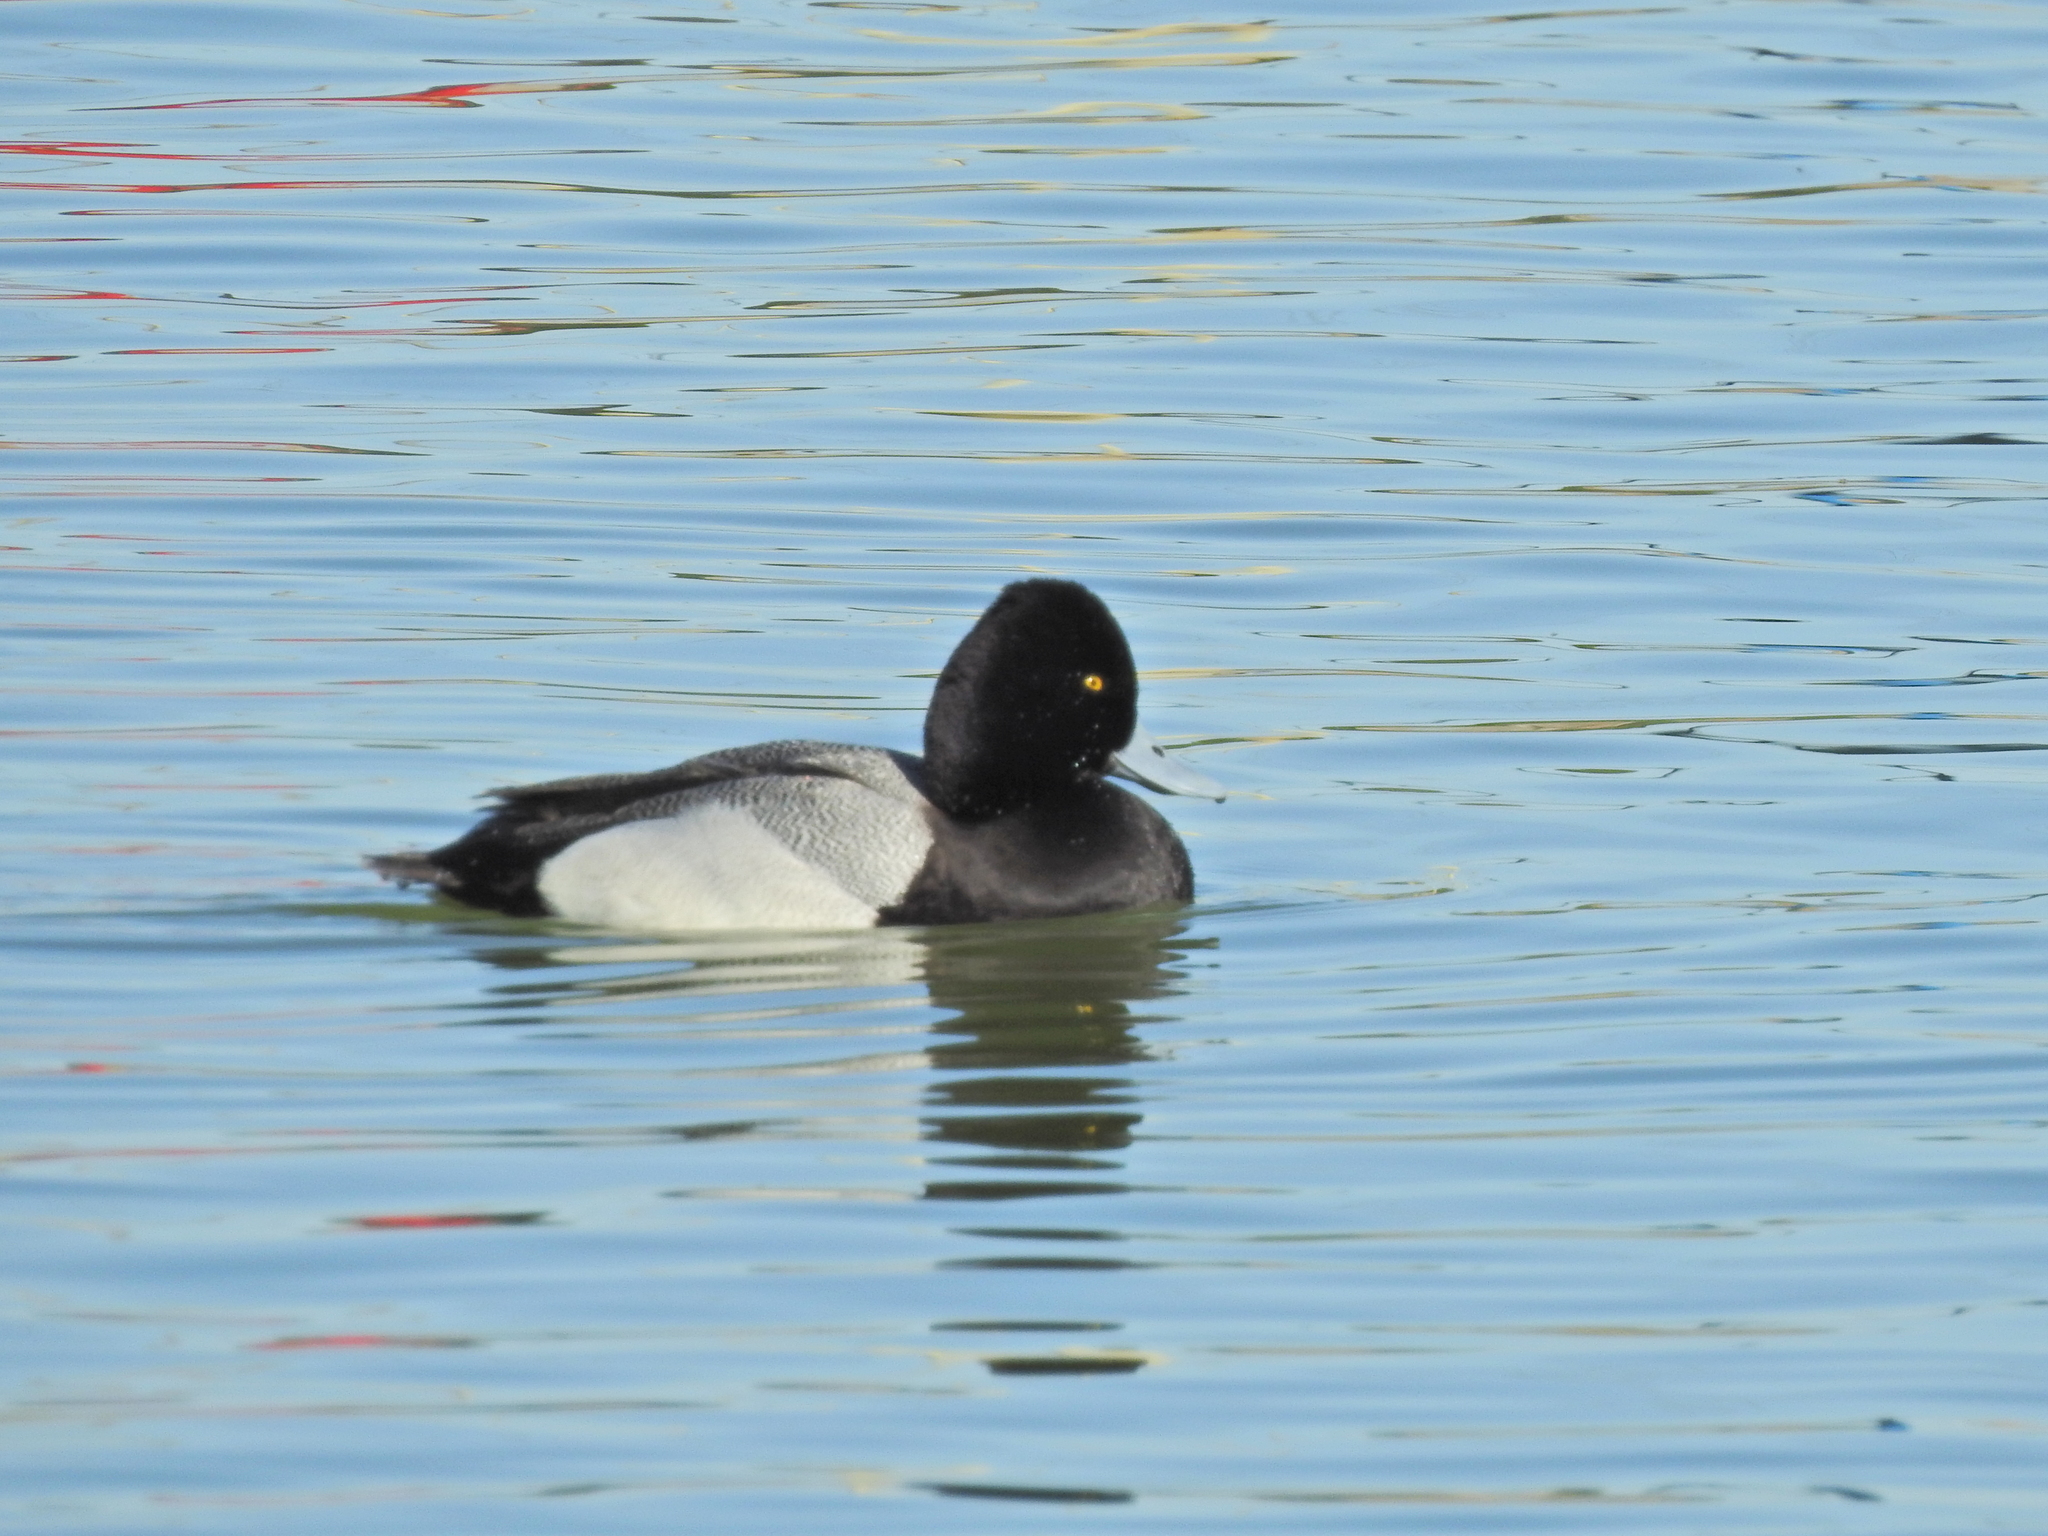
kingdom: Animalia
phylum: Chordata
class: Aves
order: Anseriformes
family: Anatidae
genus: Aythya
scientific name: Aythya affinis
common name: Lesser scaup
